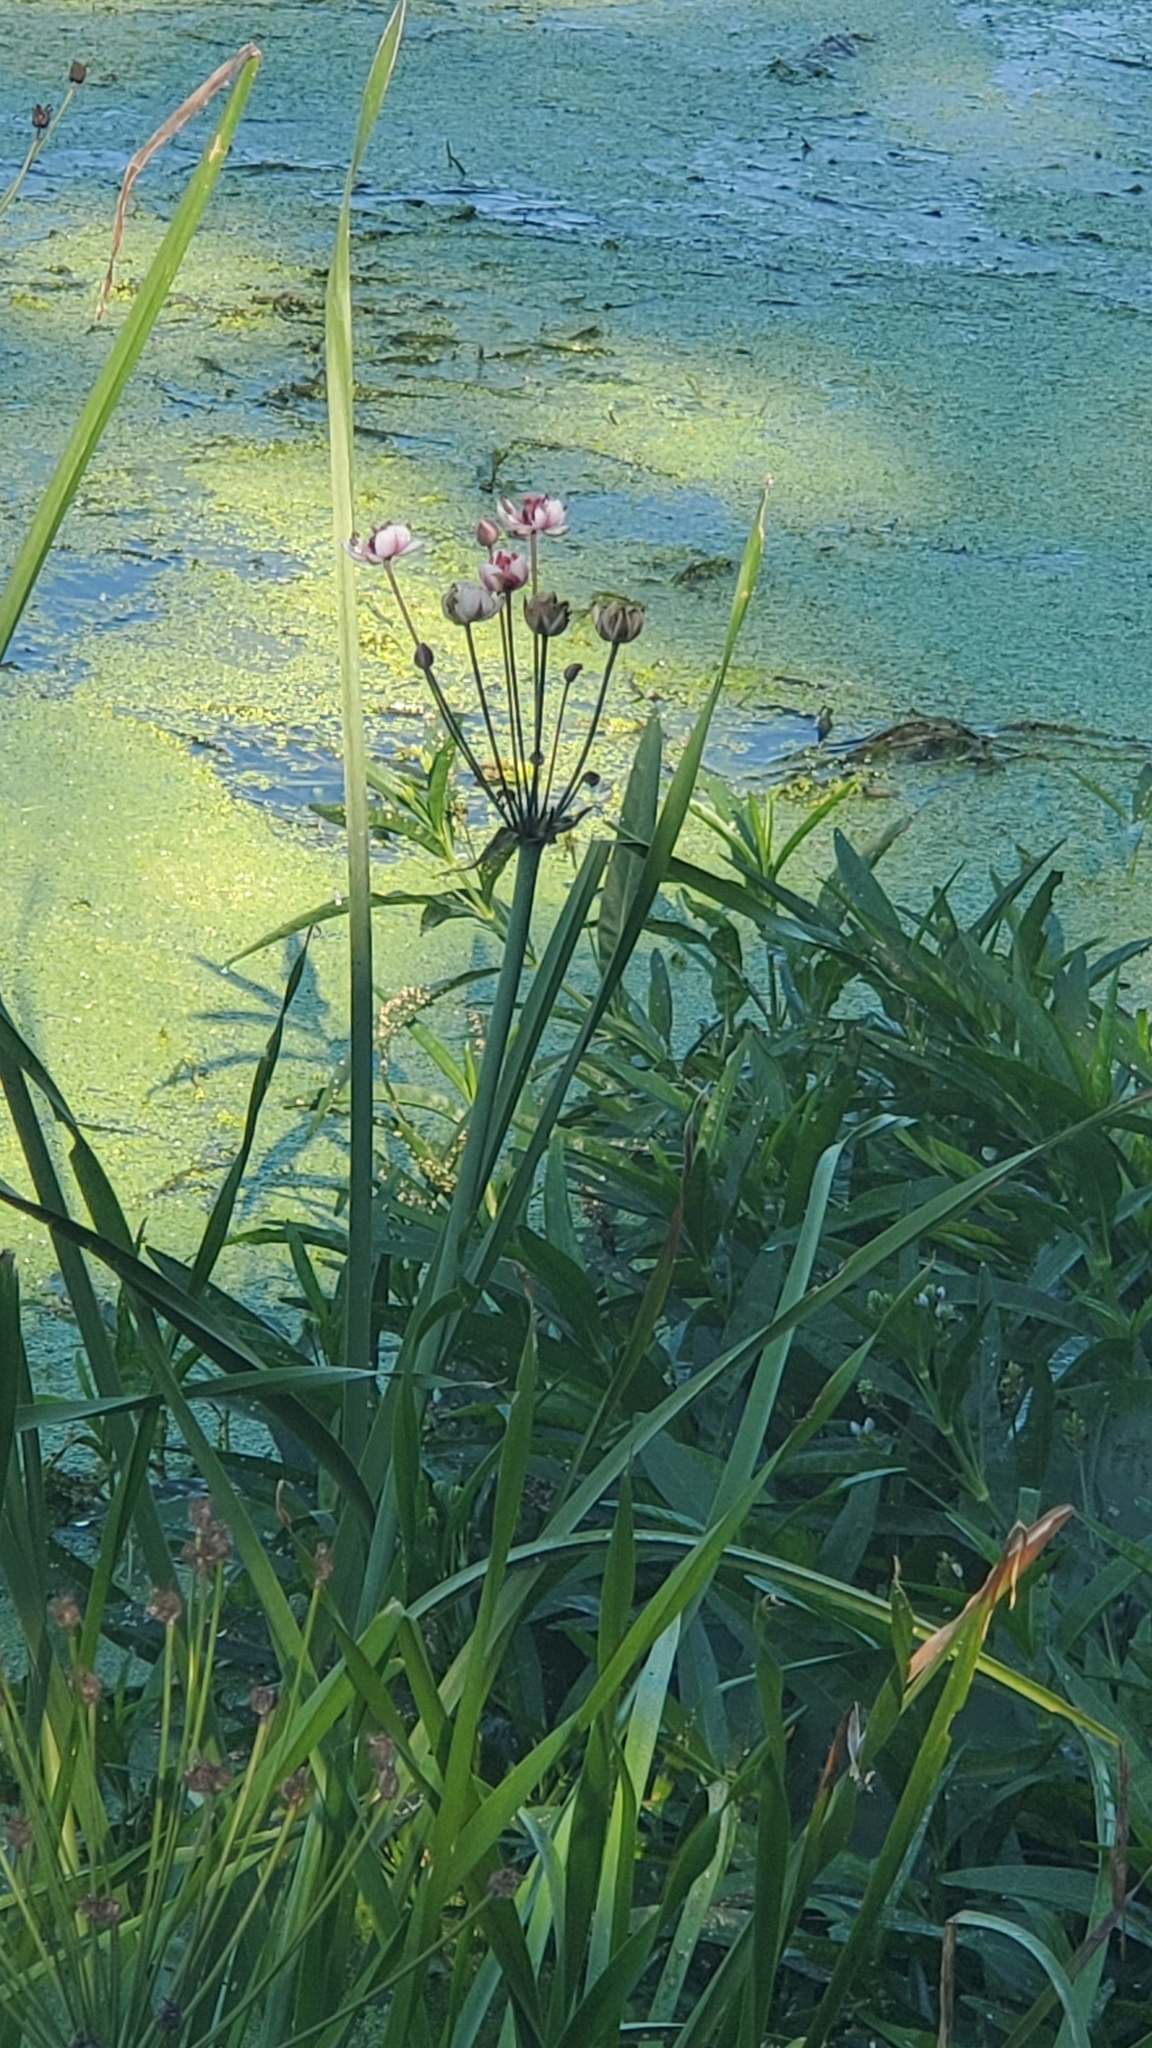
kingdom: Plantae
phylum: Tracheophyta
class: Liliopsida
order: Alismatales
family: Butomaceae
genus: Butomus
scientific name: Butomus umbellatus
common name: Flowering-rush
